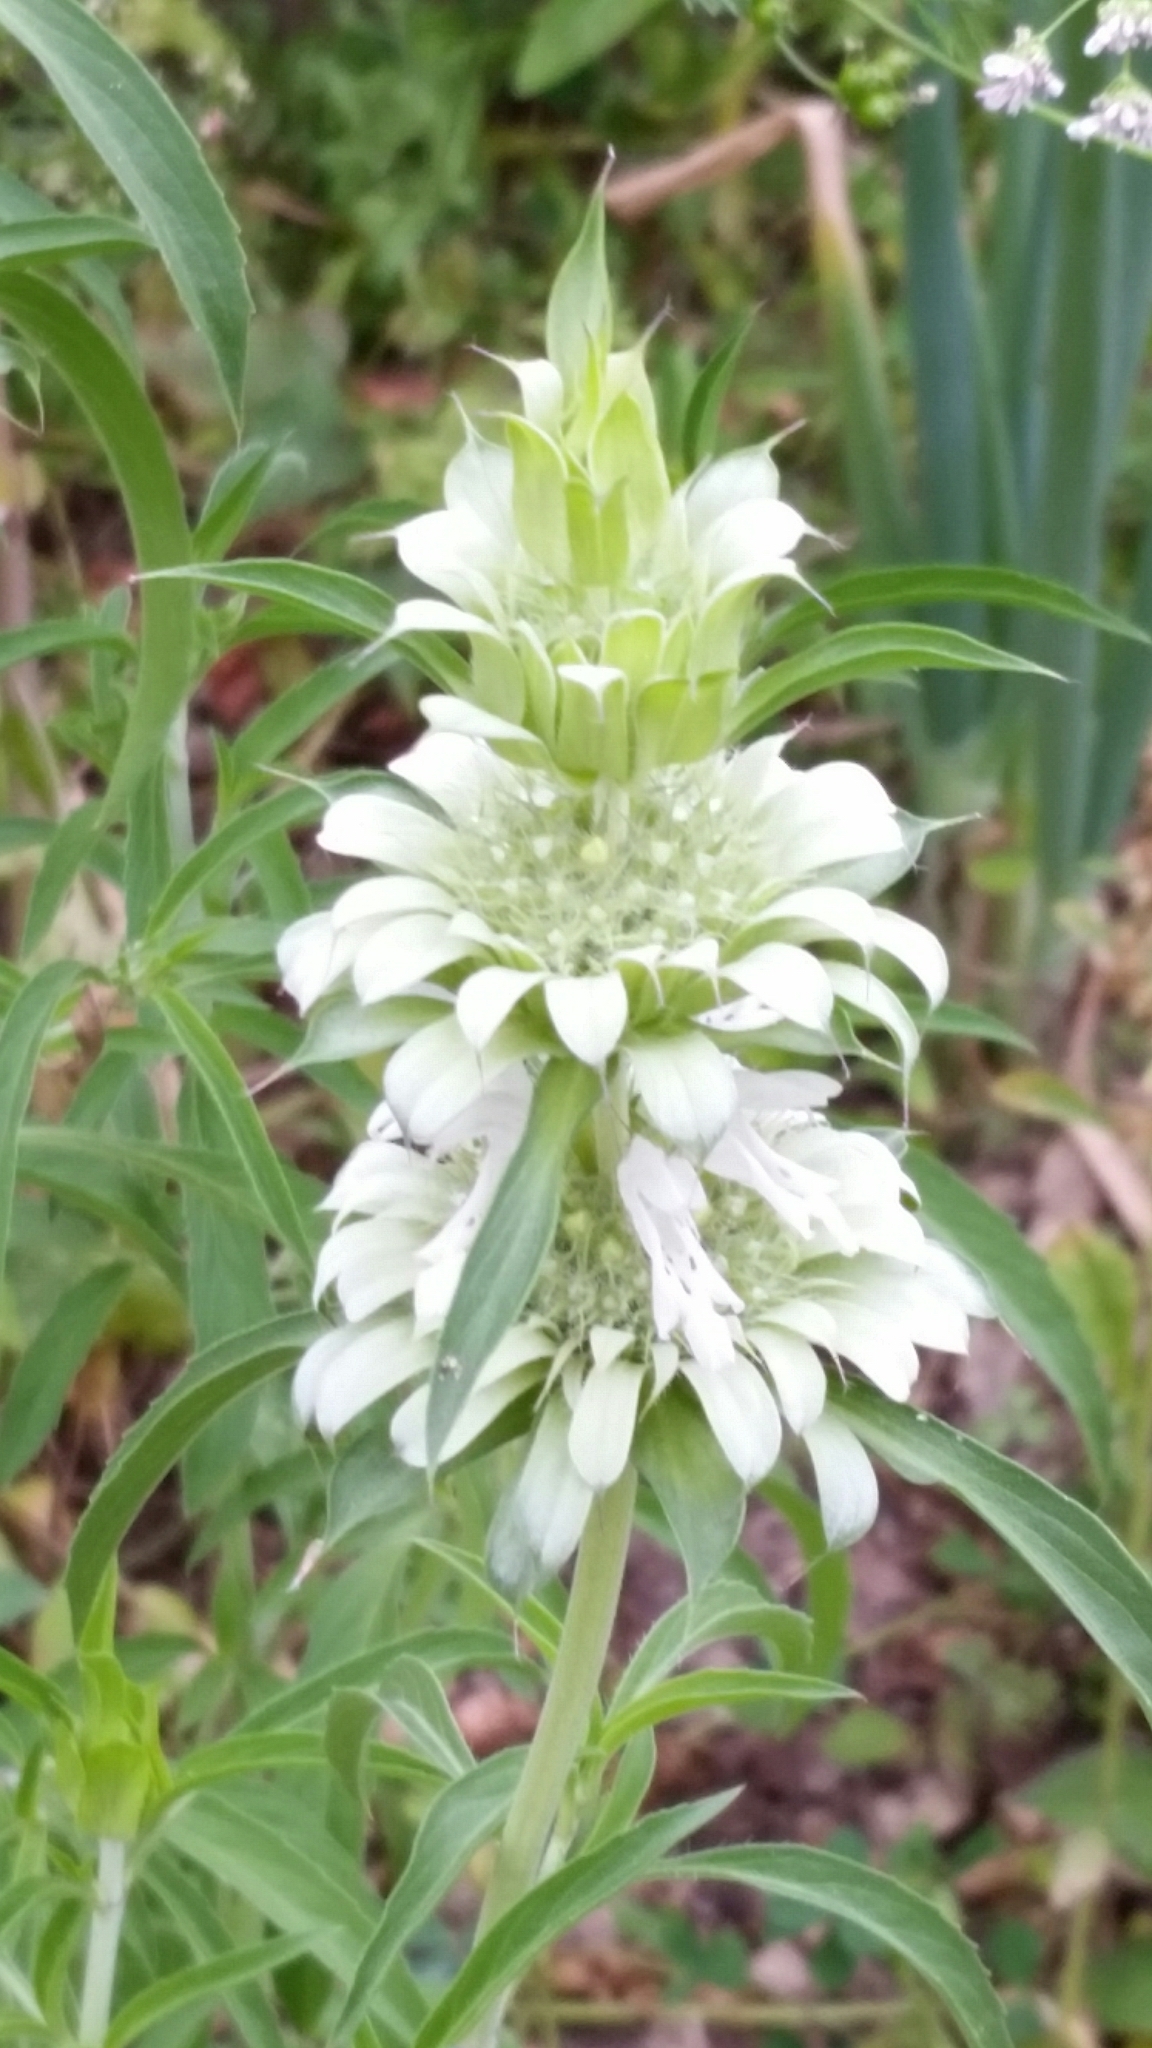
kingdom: Plantae
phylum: Tracheophyta
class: Magnoliopsida
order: Lamiales
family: Lamiaceae
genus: Monarda
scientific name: Monarda citriodora
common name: Lemon beebalm
